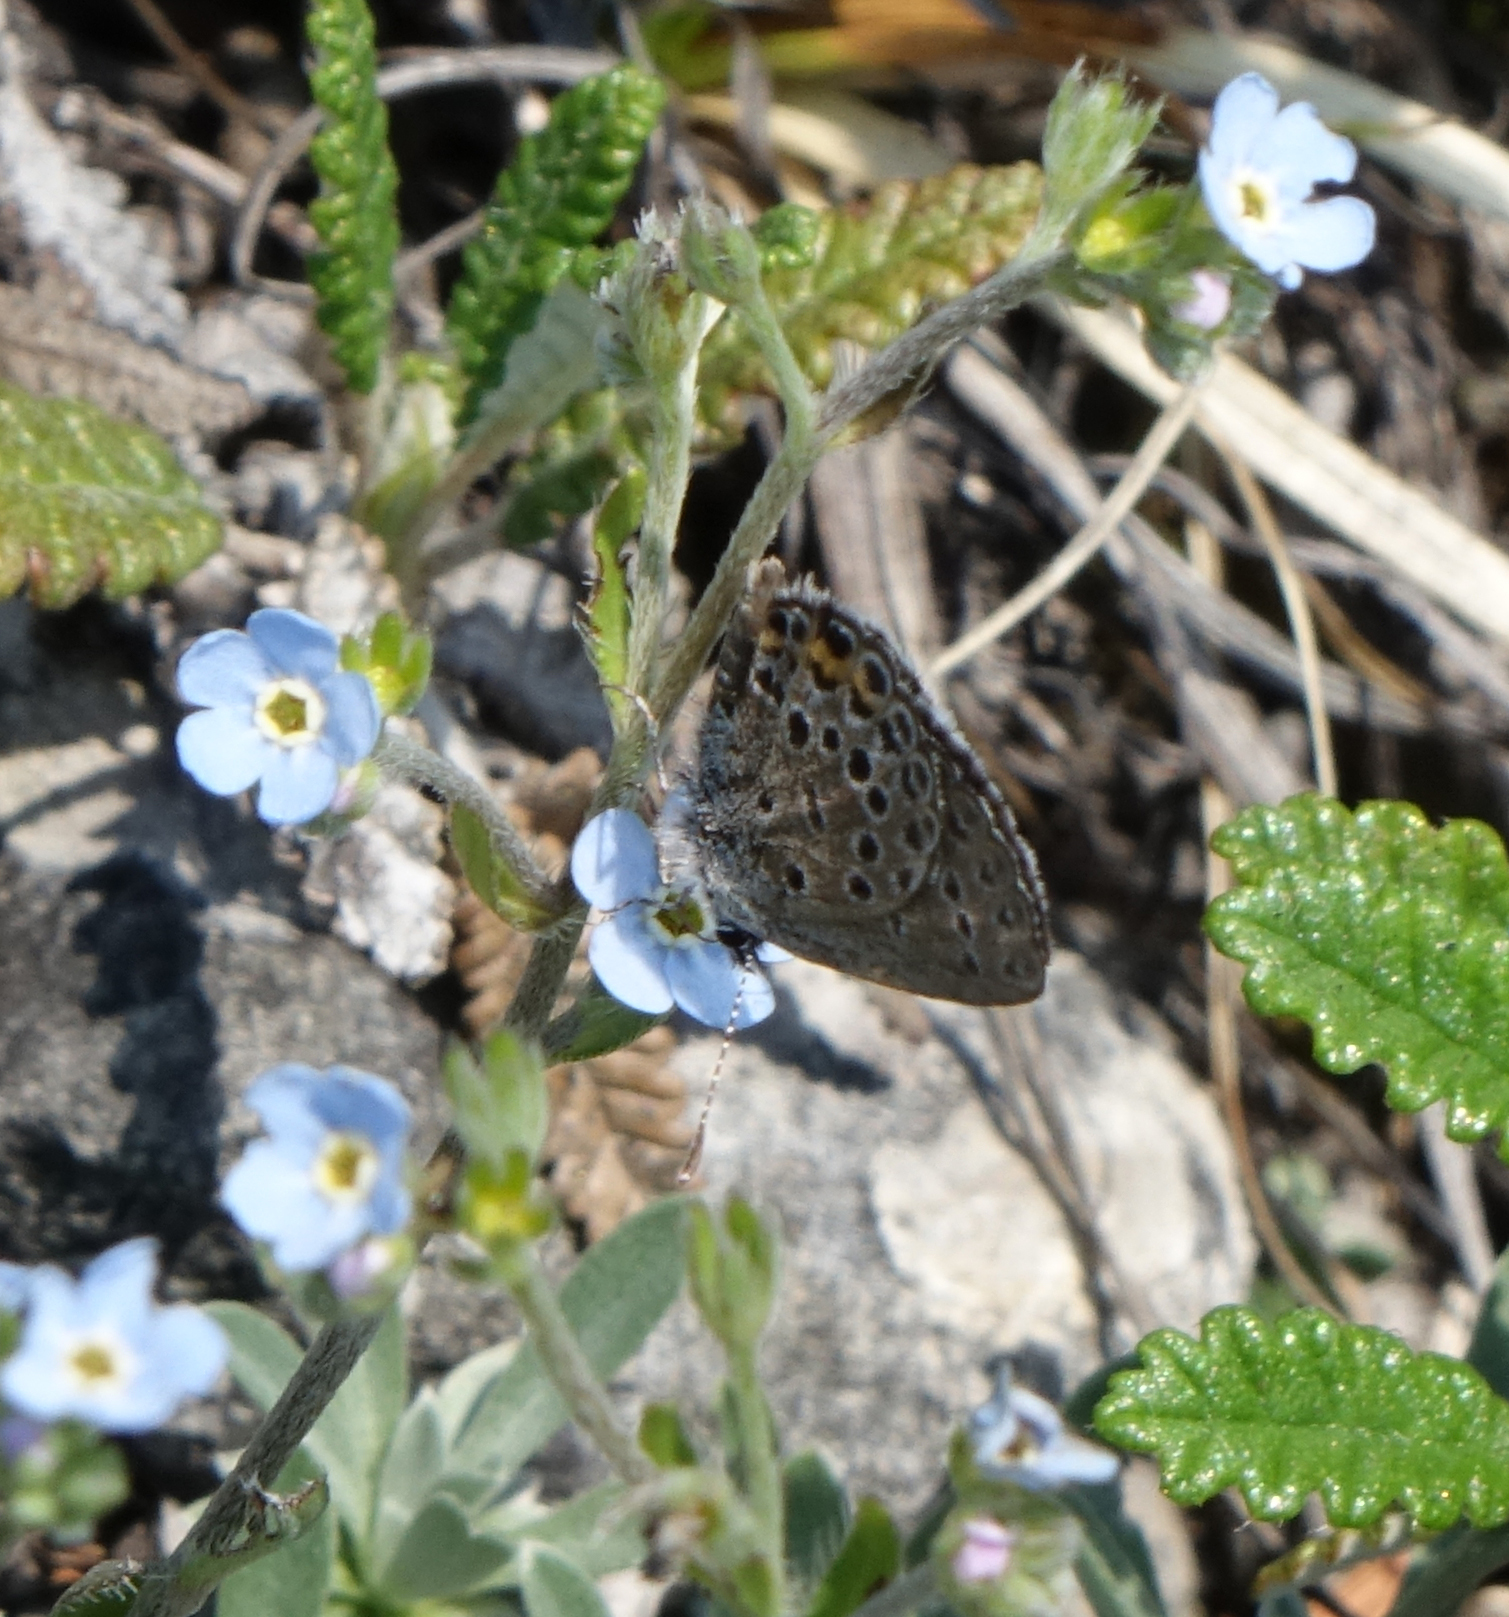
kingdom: Animalia
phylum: Arthropoda
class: Insecta
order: Lepidoptera
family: Lycaenidae
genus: Vacciniina
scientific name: Vacciniina optilete
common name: Cranberry blue
